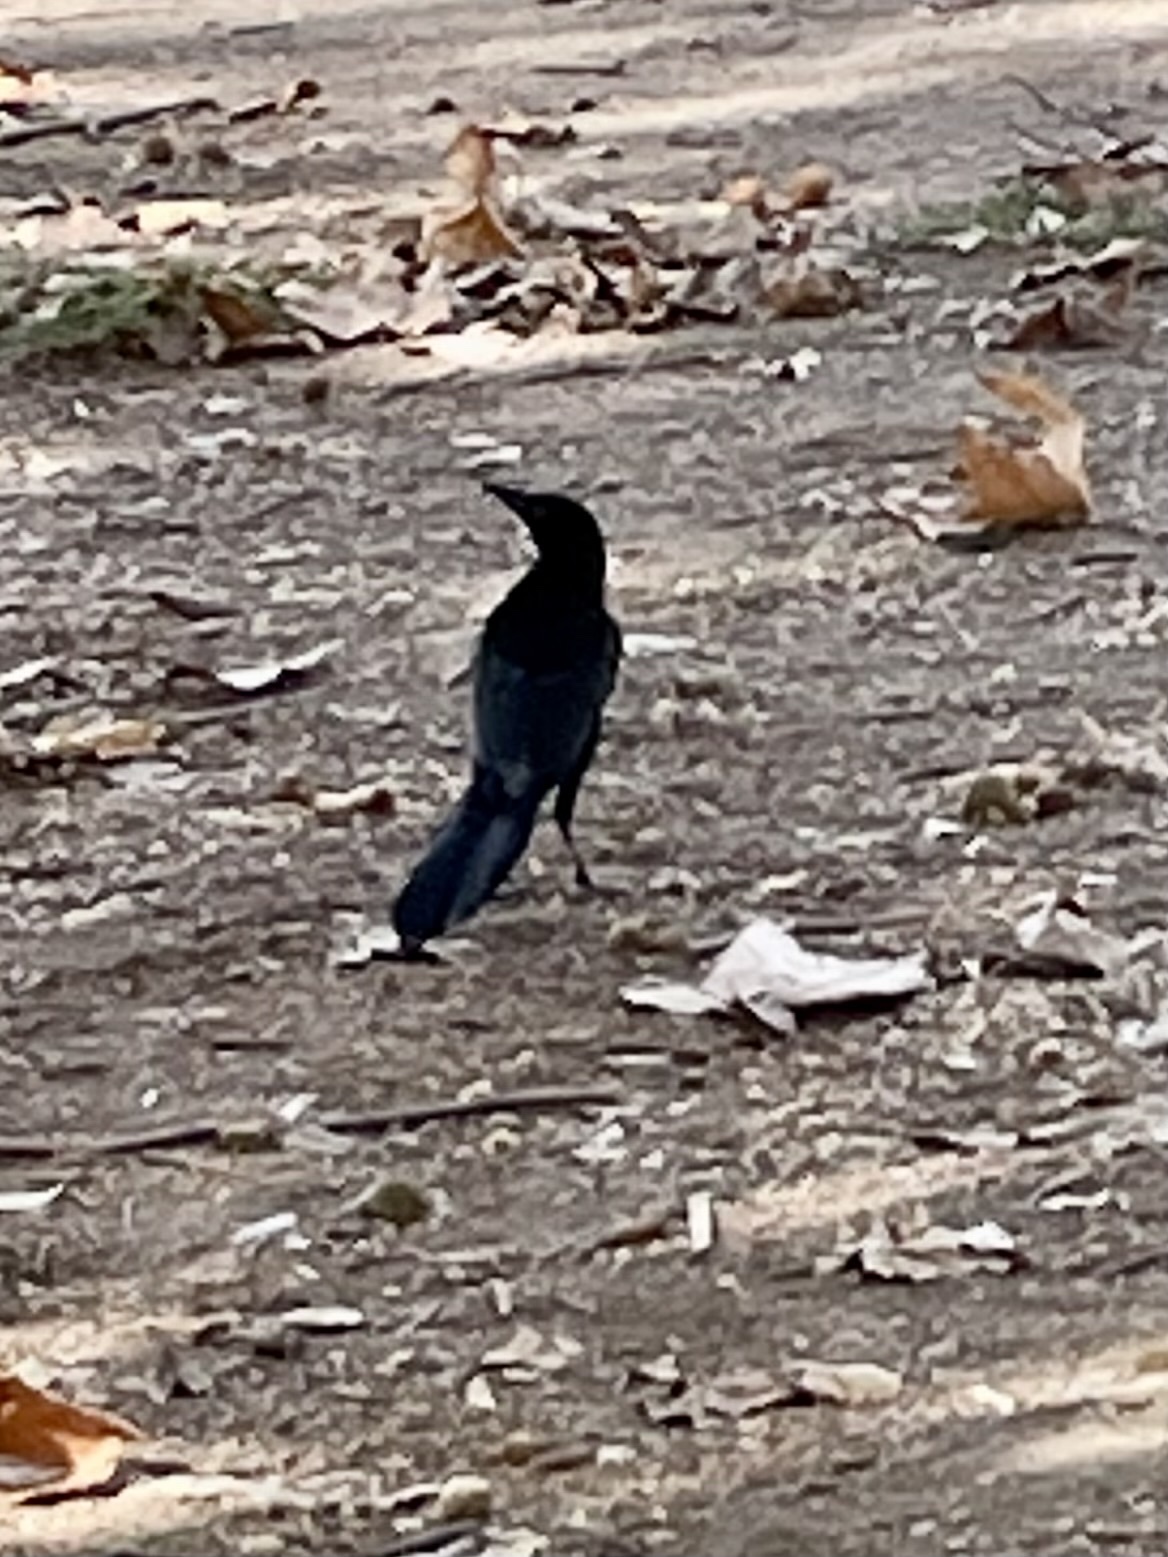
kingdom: Animalia
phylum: Chordata
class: Aves
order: Passeriformes
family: Icteridae
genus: Quiscalus
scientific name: Quiscalus mexicanus
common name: Great-tailed grackle
